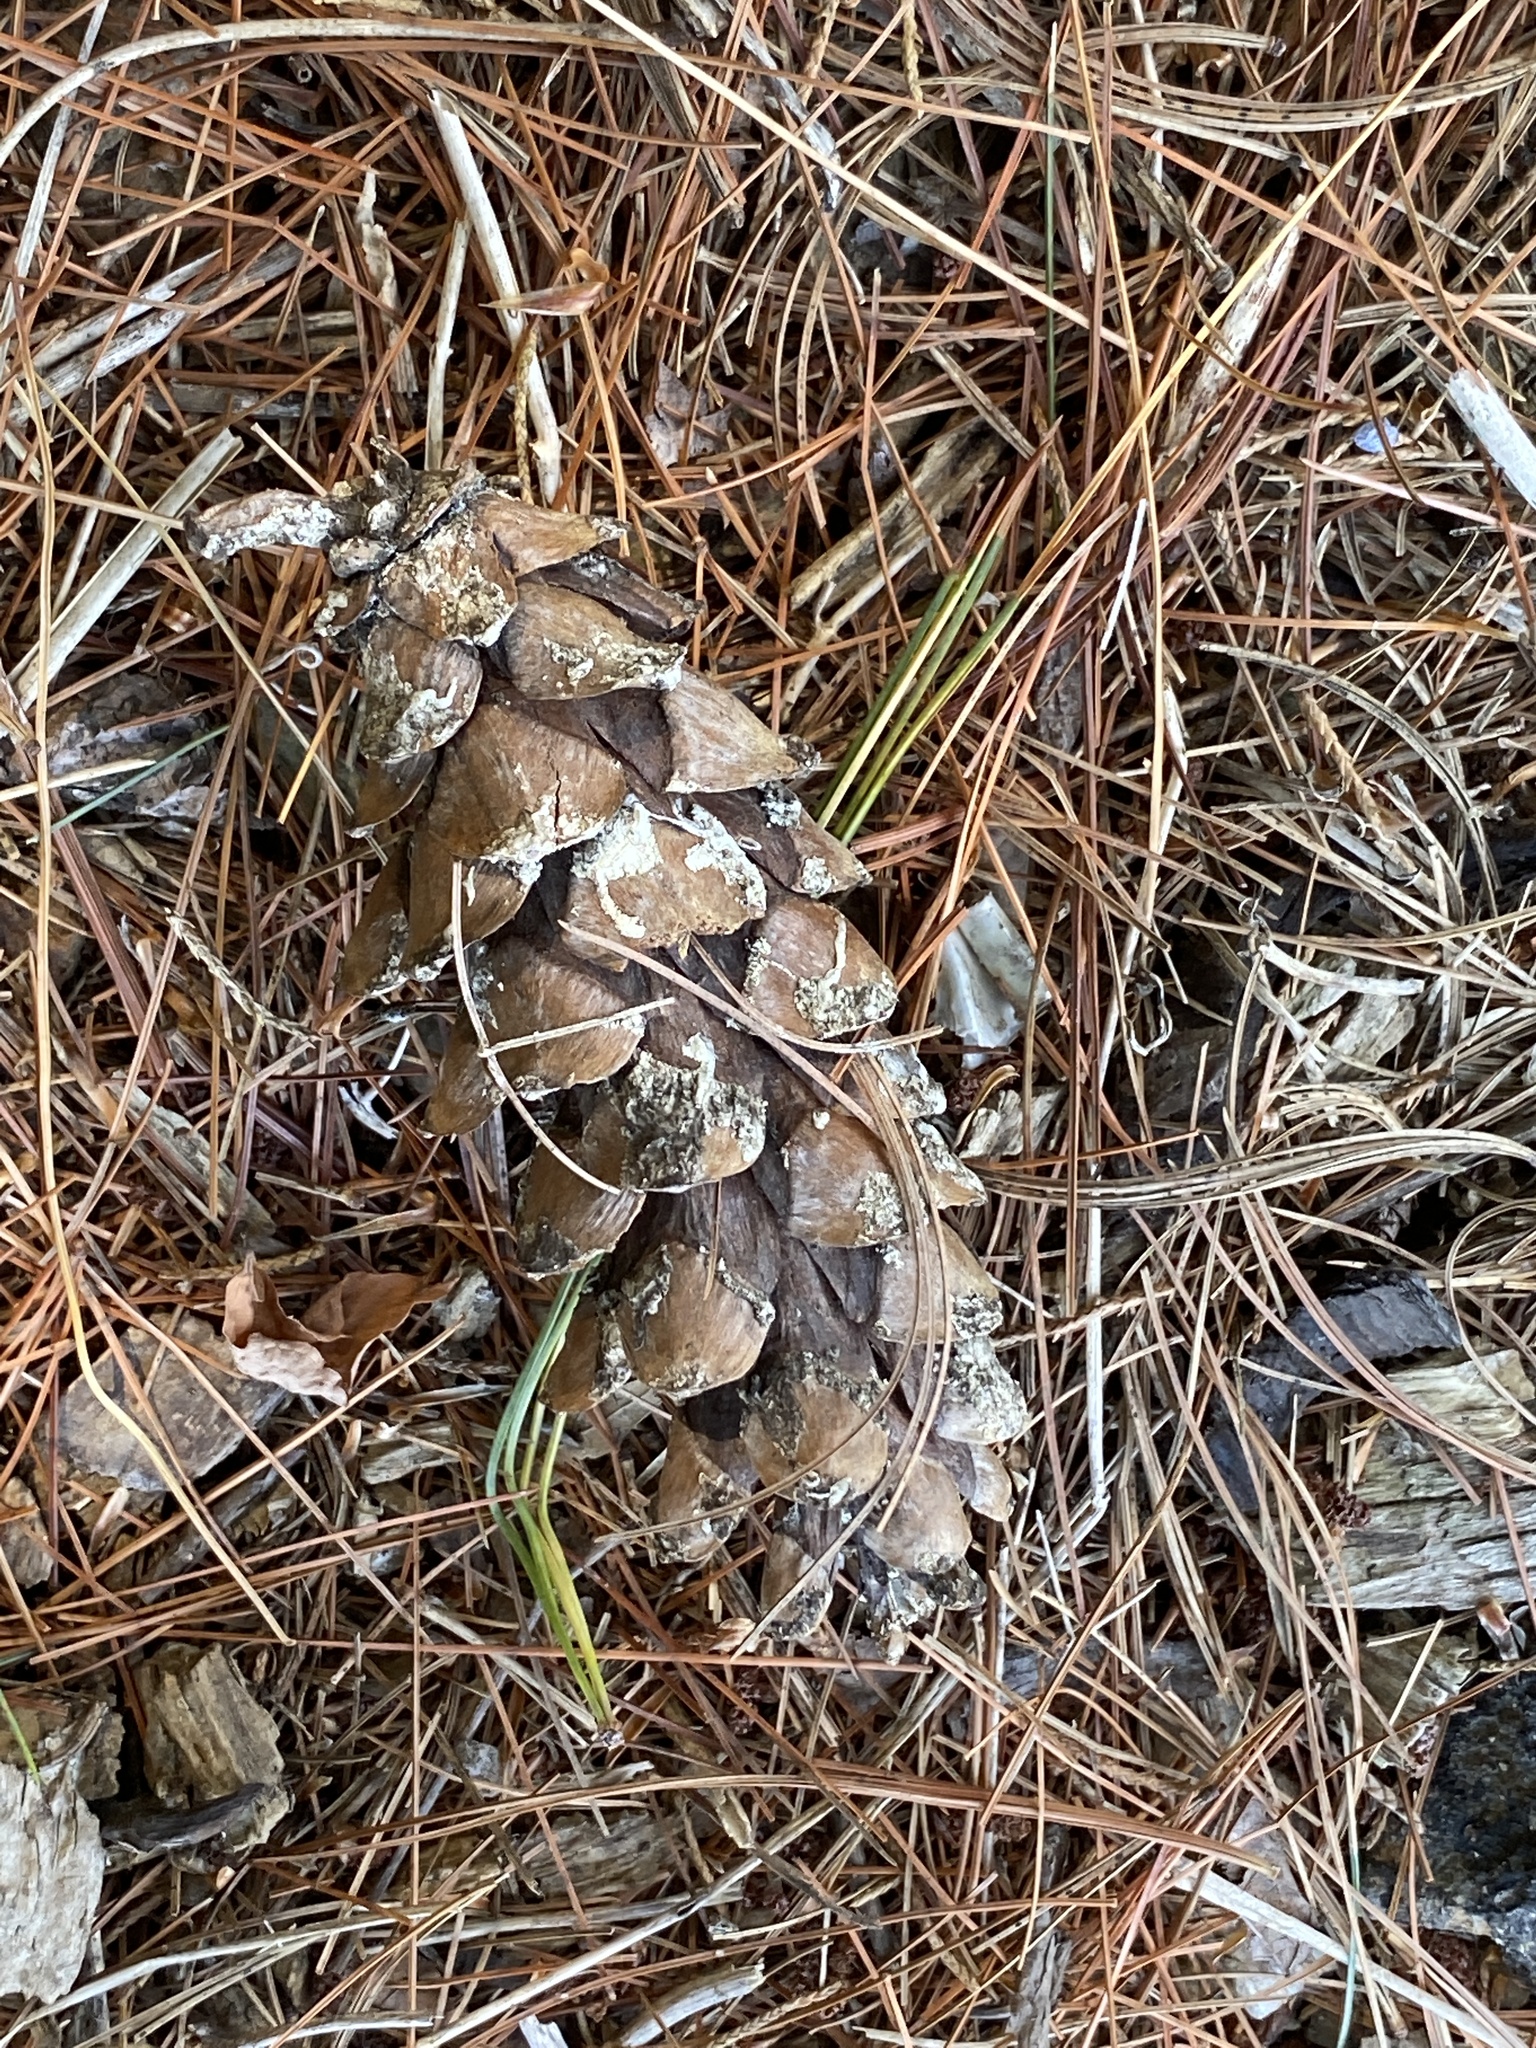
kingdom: Plantae
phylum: Tracheophyta
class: Pinopsida
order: Pinales
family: Pinaceae
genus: Pinus
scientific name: Pinus strobus
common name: Weymouth pine
